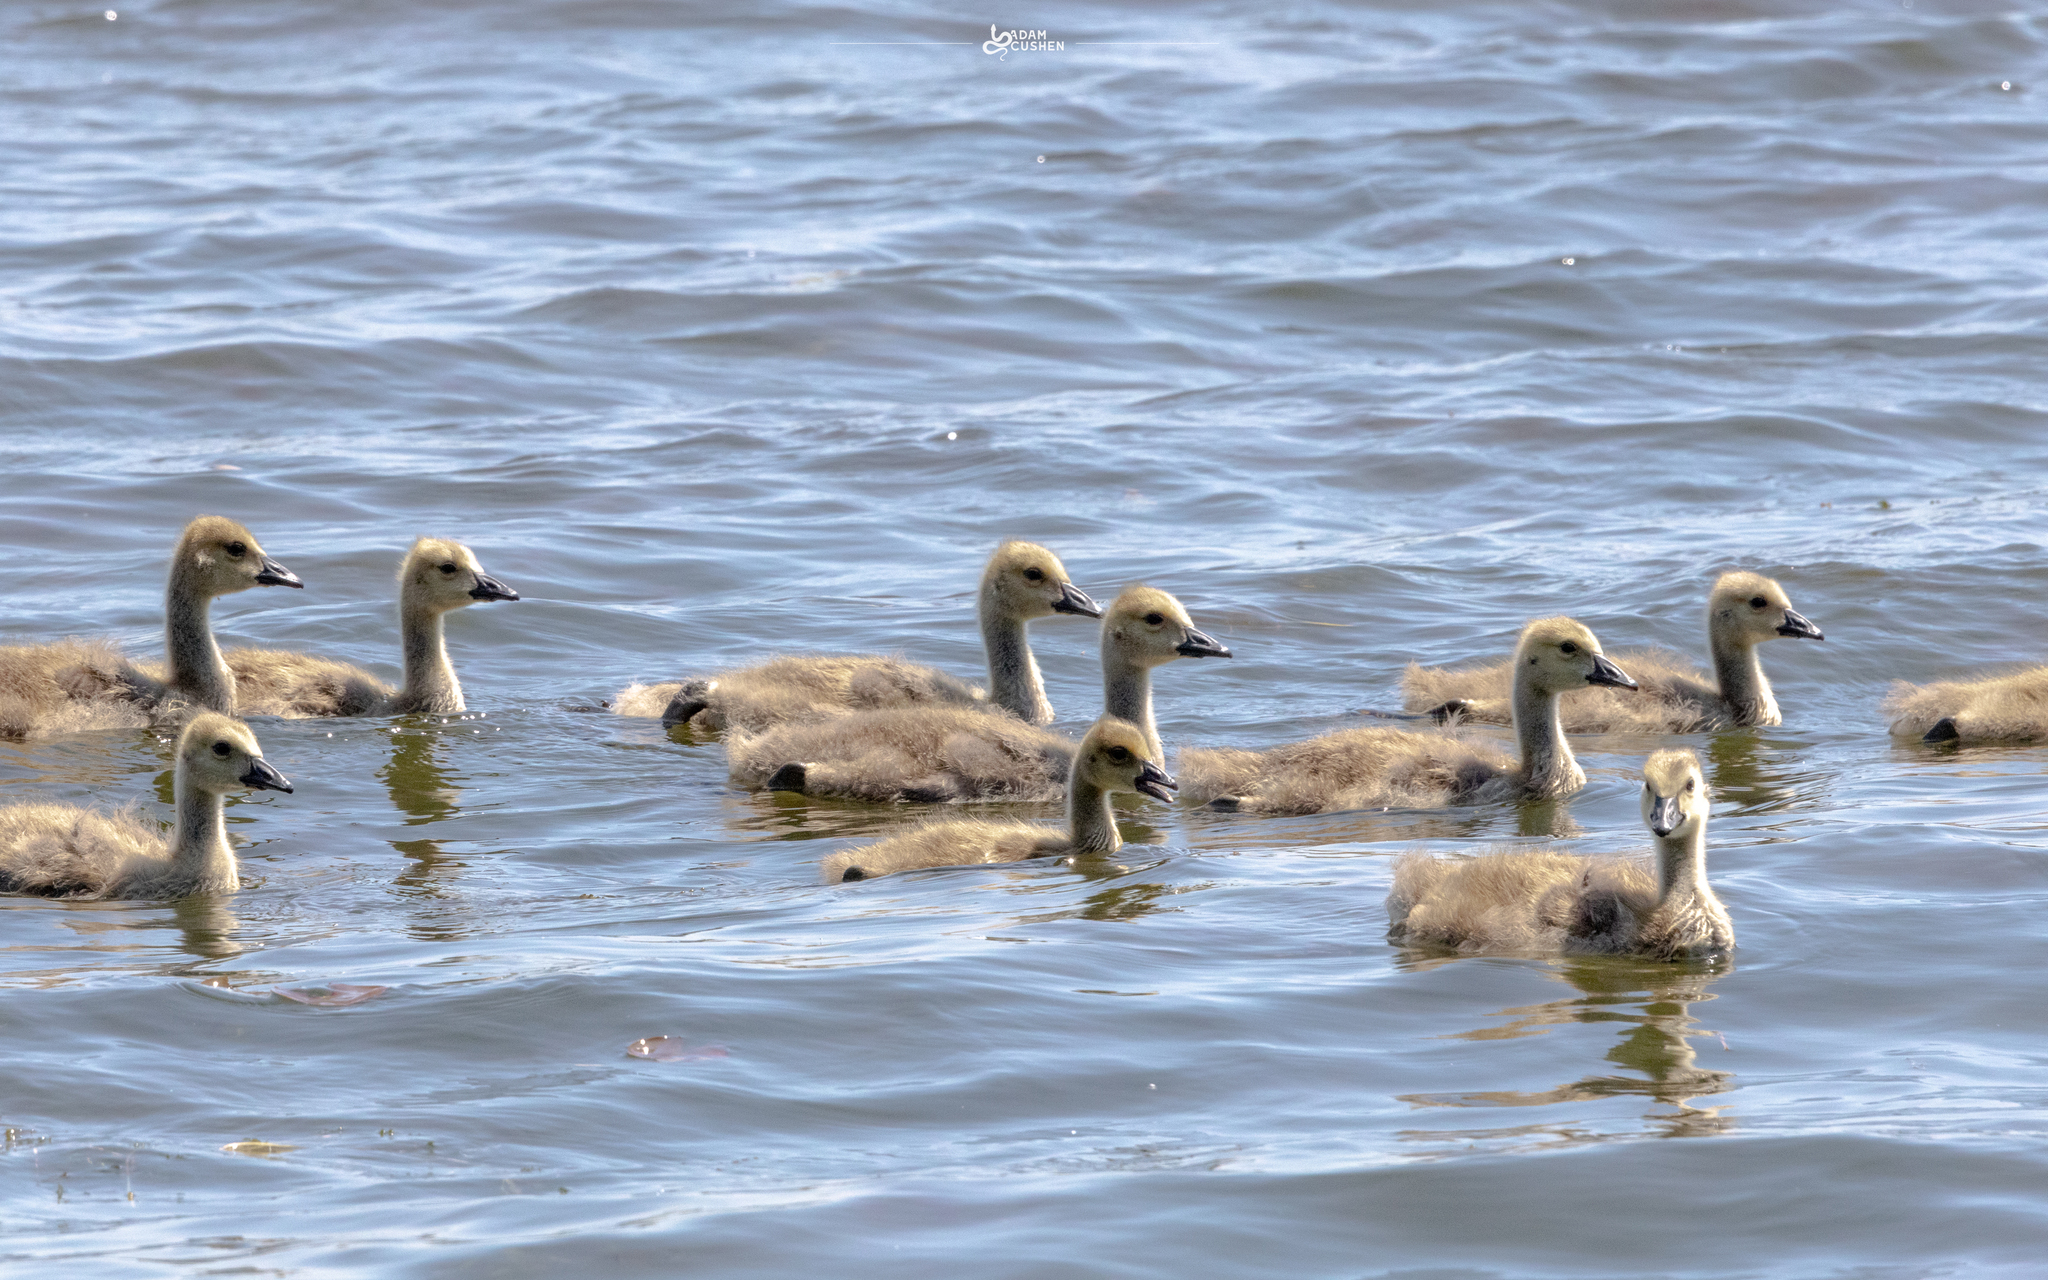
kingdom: Animalia
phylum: Chordata
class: Aves
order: Anseriformes
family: Anatidae
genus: Branta
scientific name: Branta canadensis
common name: Canada goose
